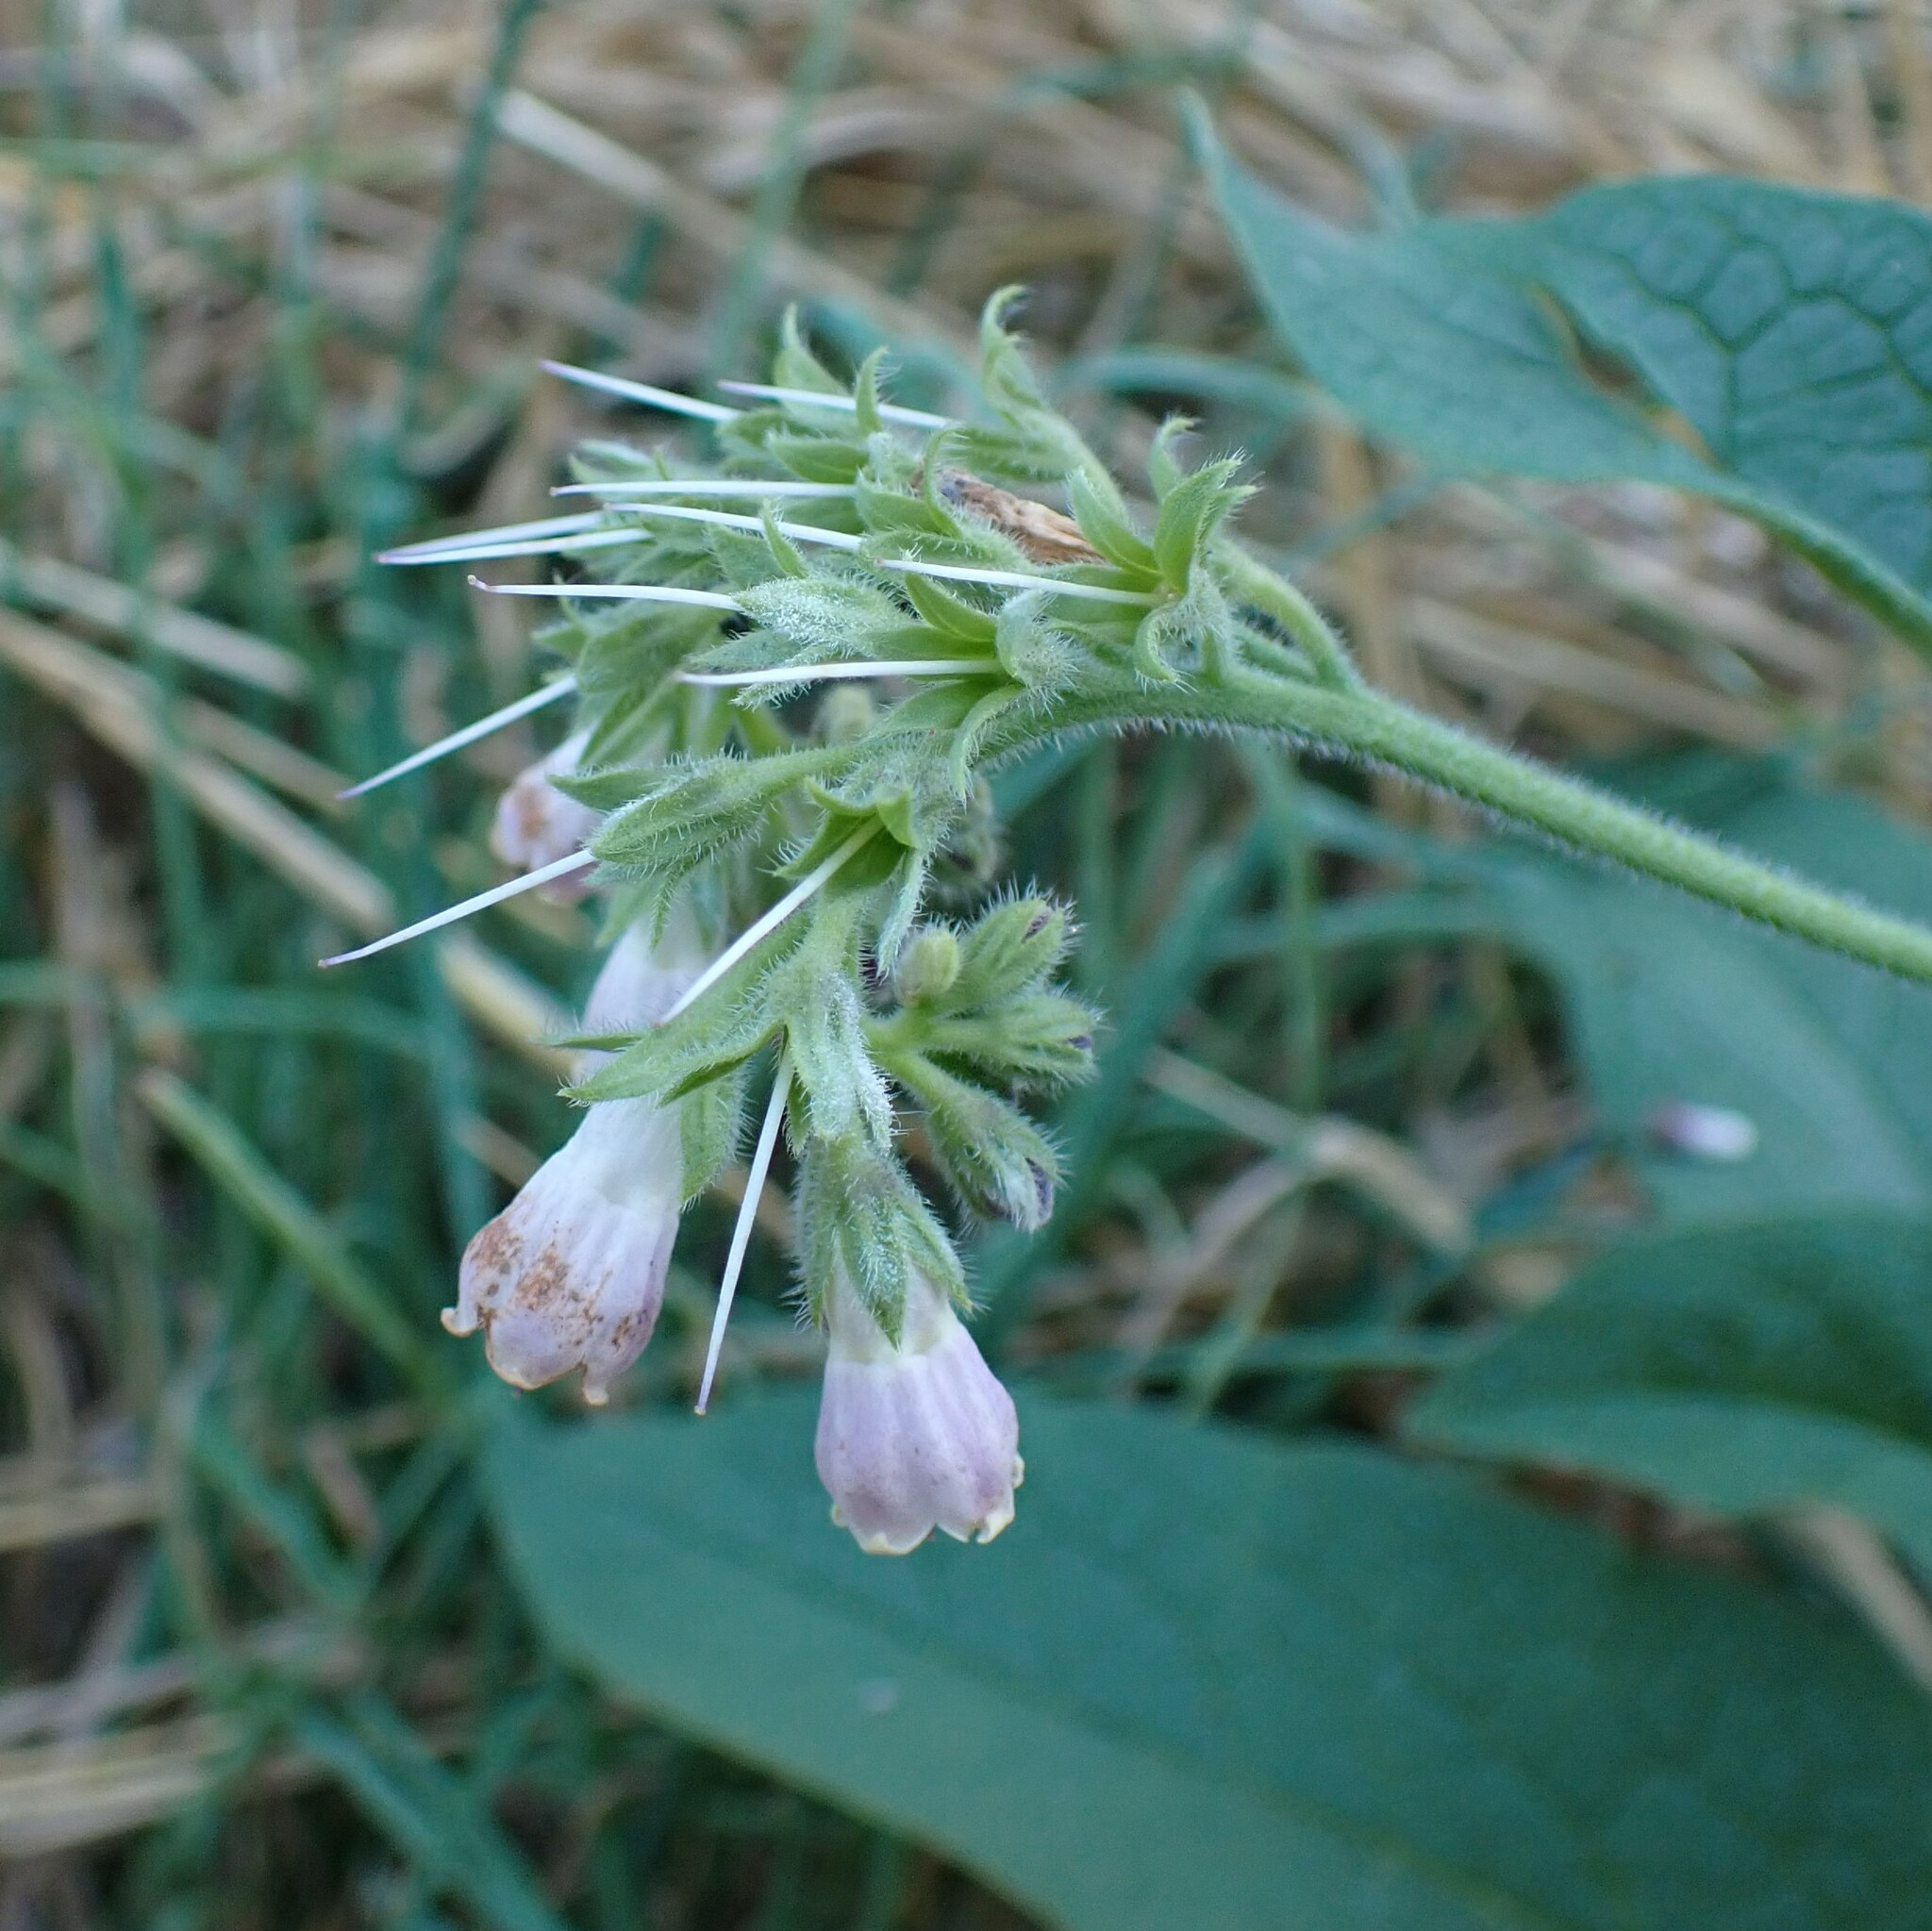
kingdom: Plantae
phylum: Tracheophyta
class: Magnoliopsida
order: Boraginales
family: Boraginaceae
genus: Symphytum
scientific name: Symphytum officinale
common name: Common comfrey
